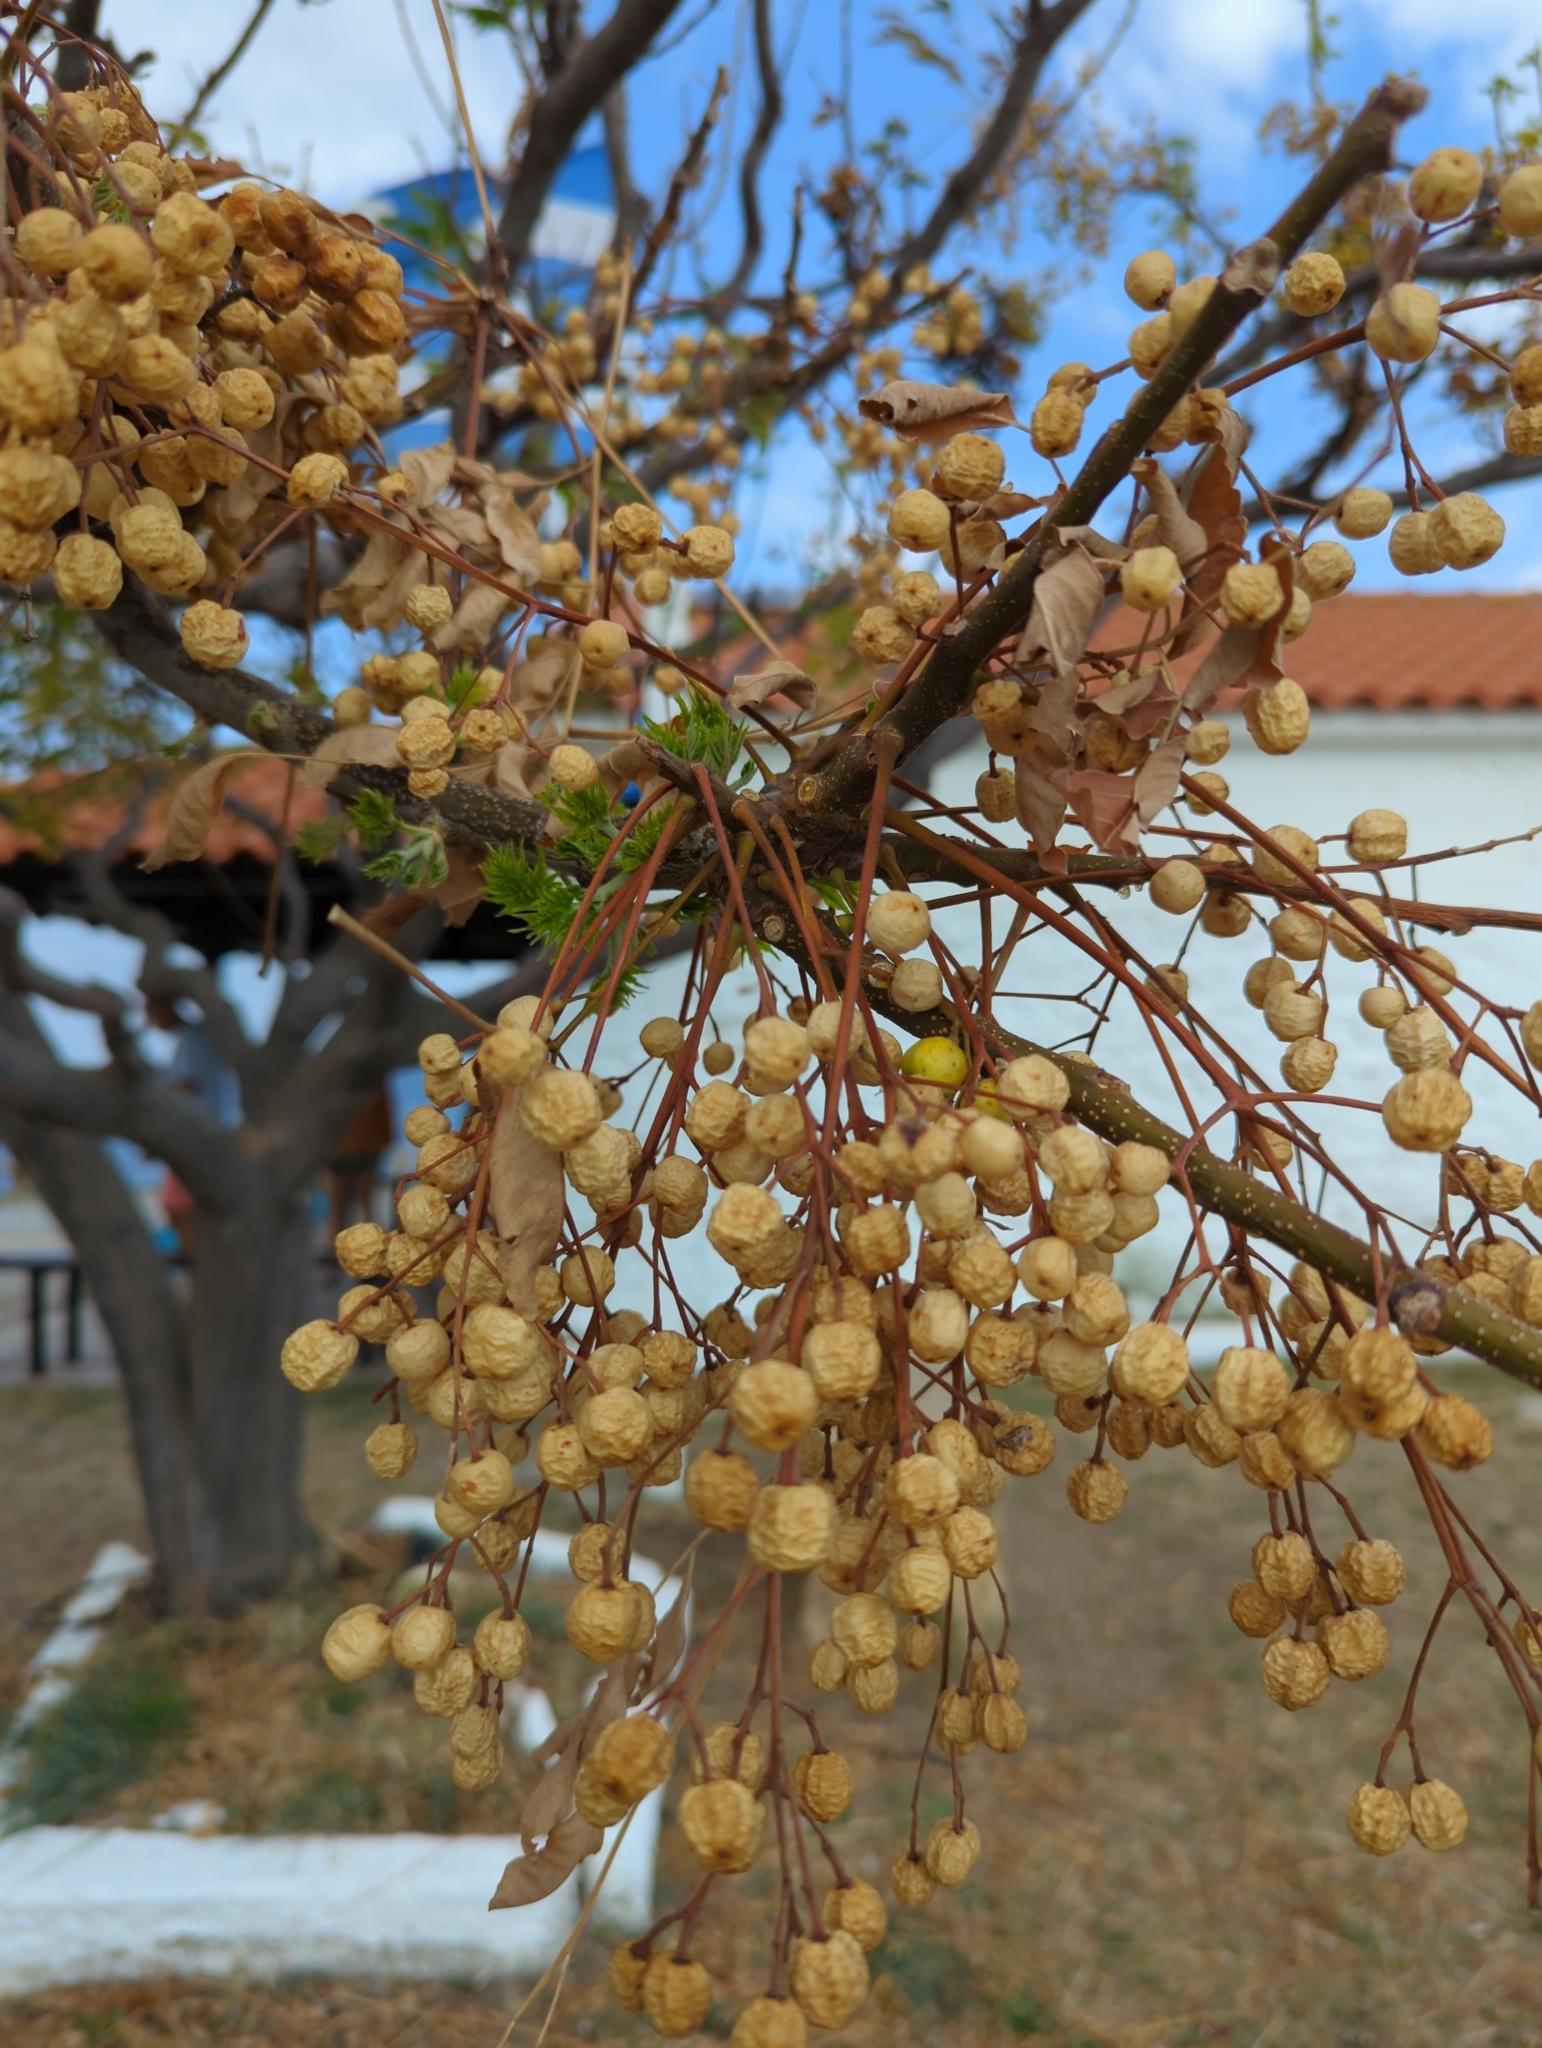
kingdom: Plantae
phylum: Tracheophyta
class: Magnoliopsida
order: Sapindales
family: Meliaceae
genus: Melia
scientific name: Melia azedarach
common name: Chinaberrytree
